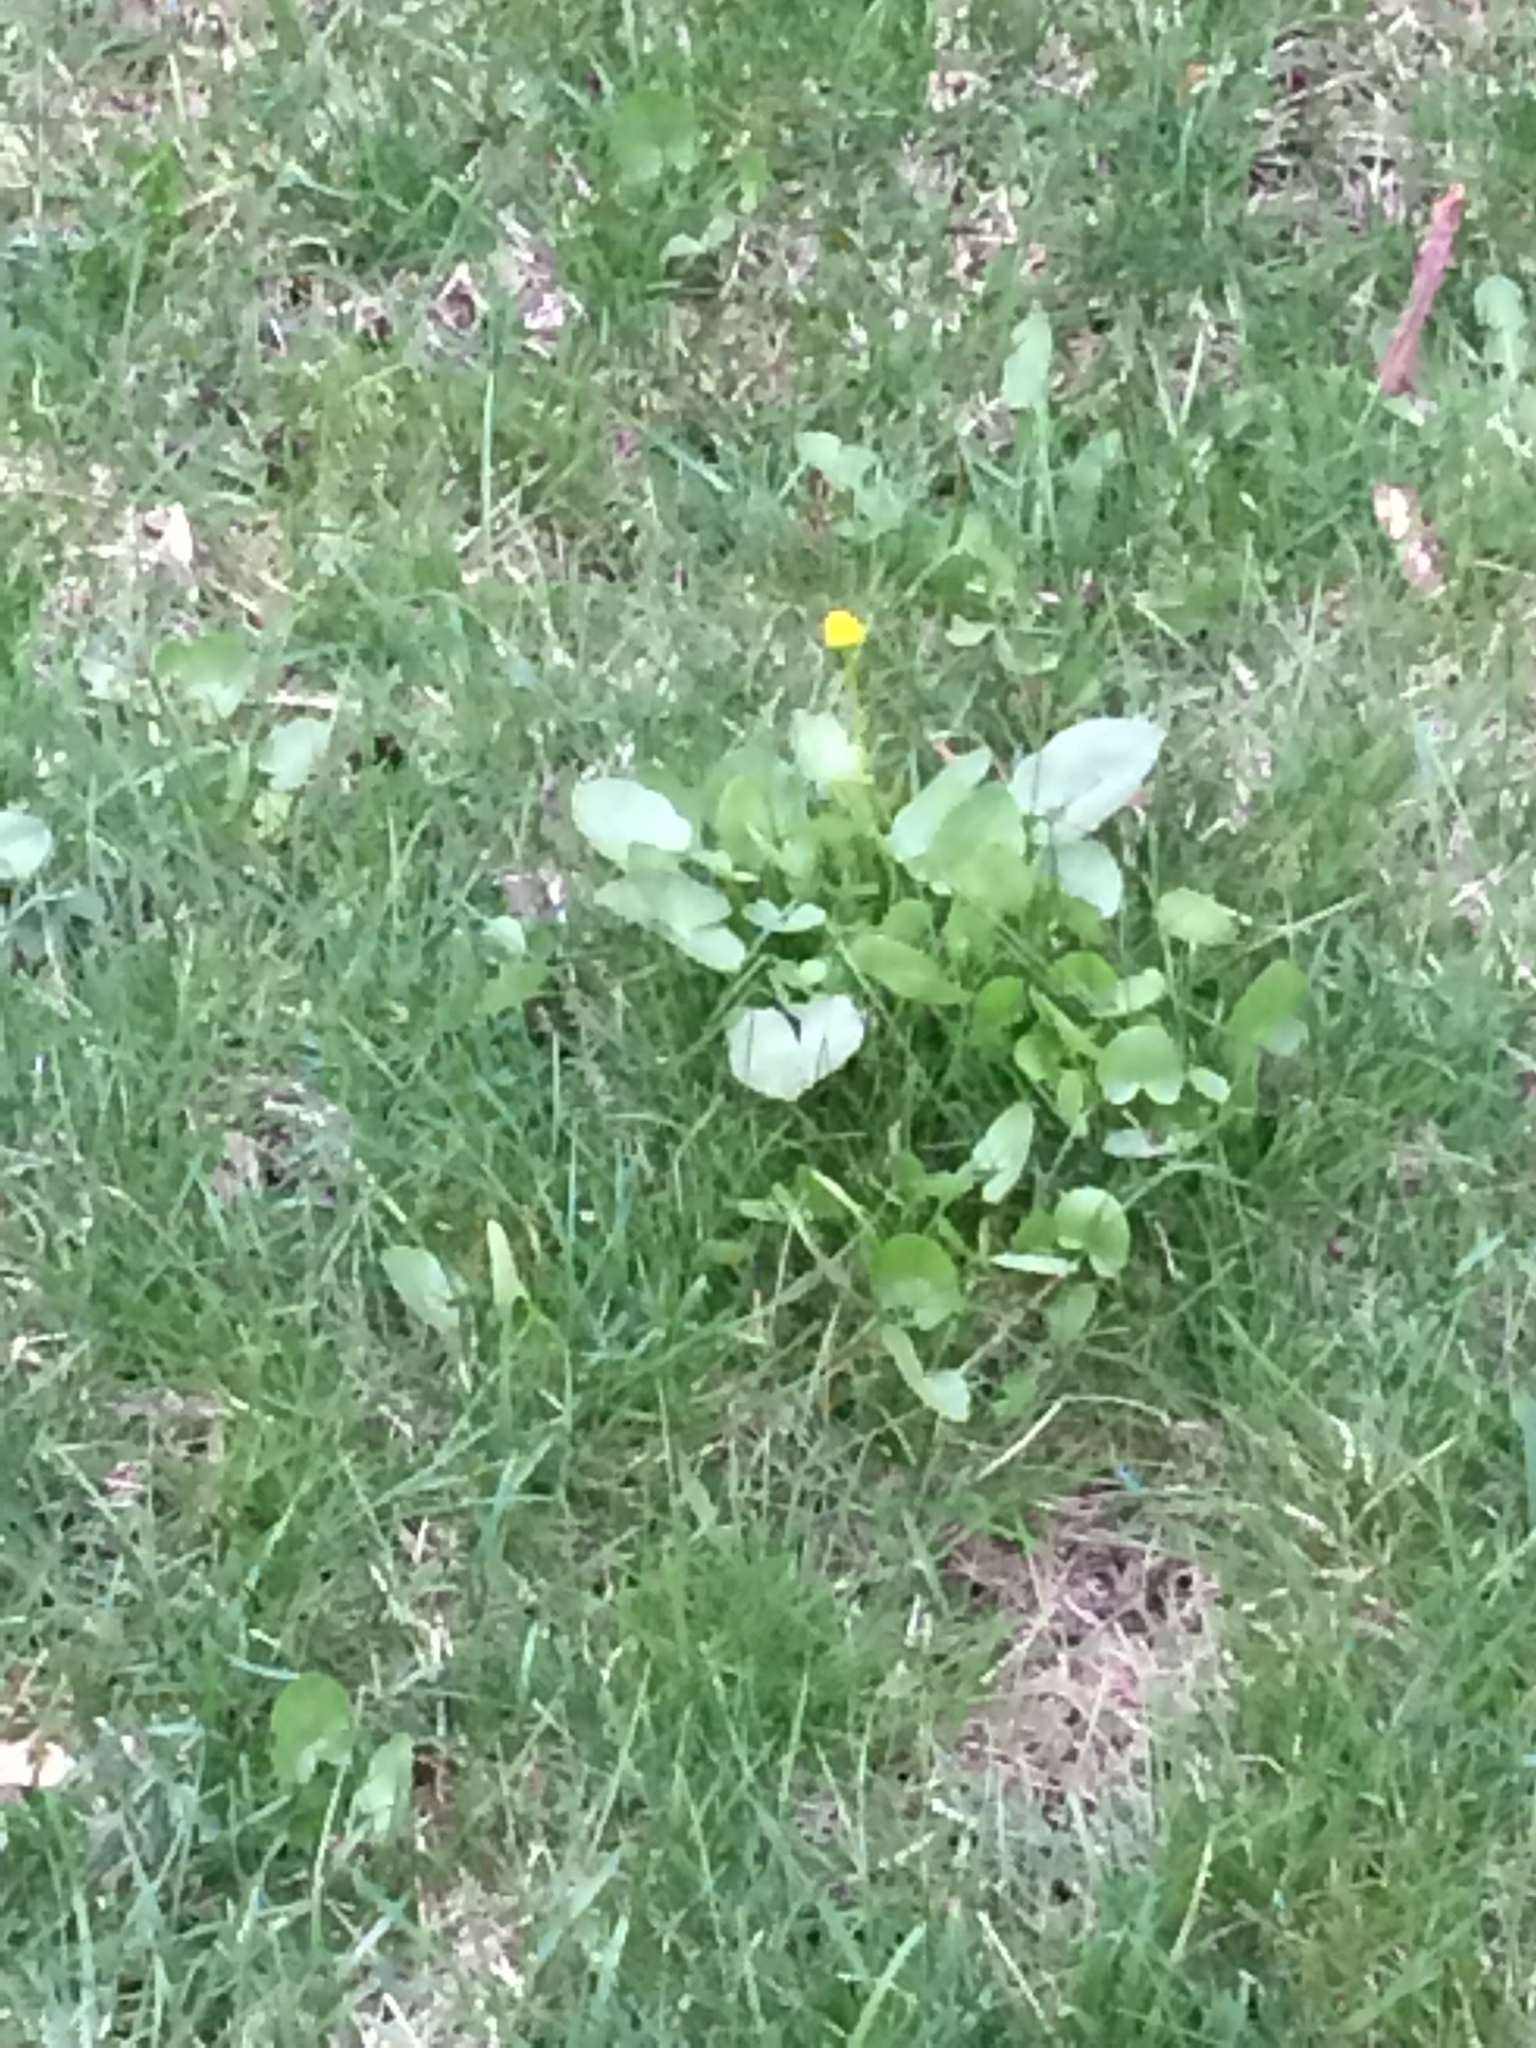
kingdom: Plantae
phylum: Tracheophyta
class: Magnoliopsida
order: Ranunculales
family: Ranunculaceae
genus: Ficaria
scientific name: Ficaria verna
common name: Lesser celandine
